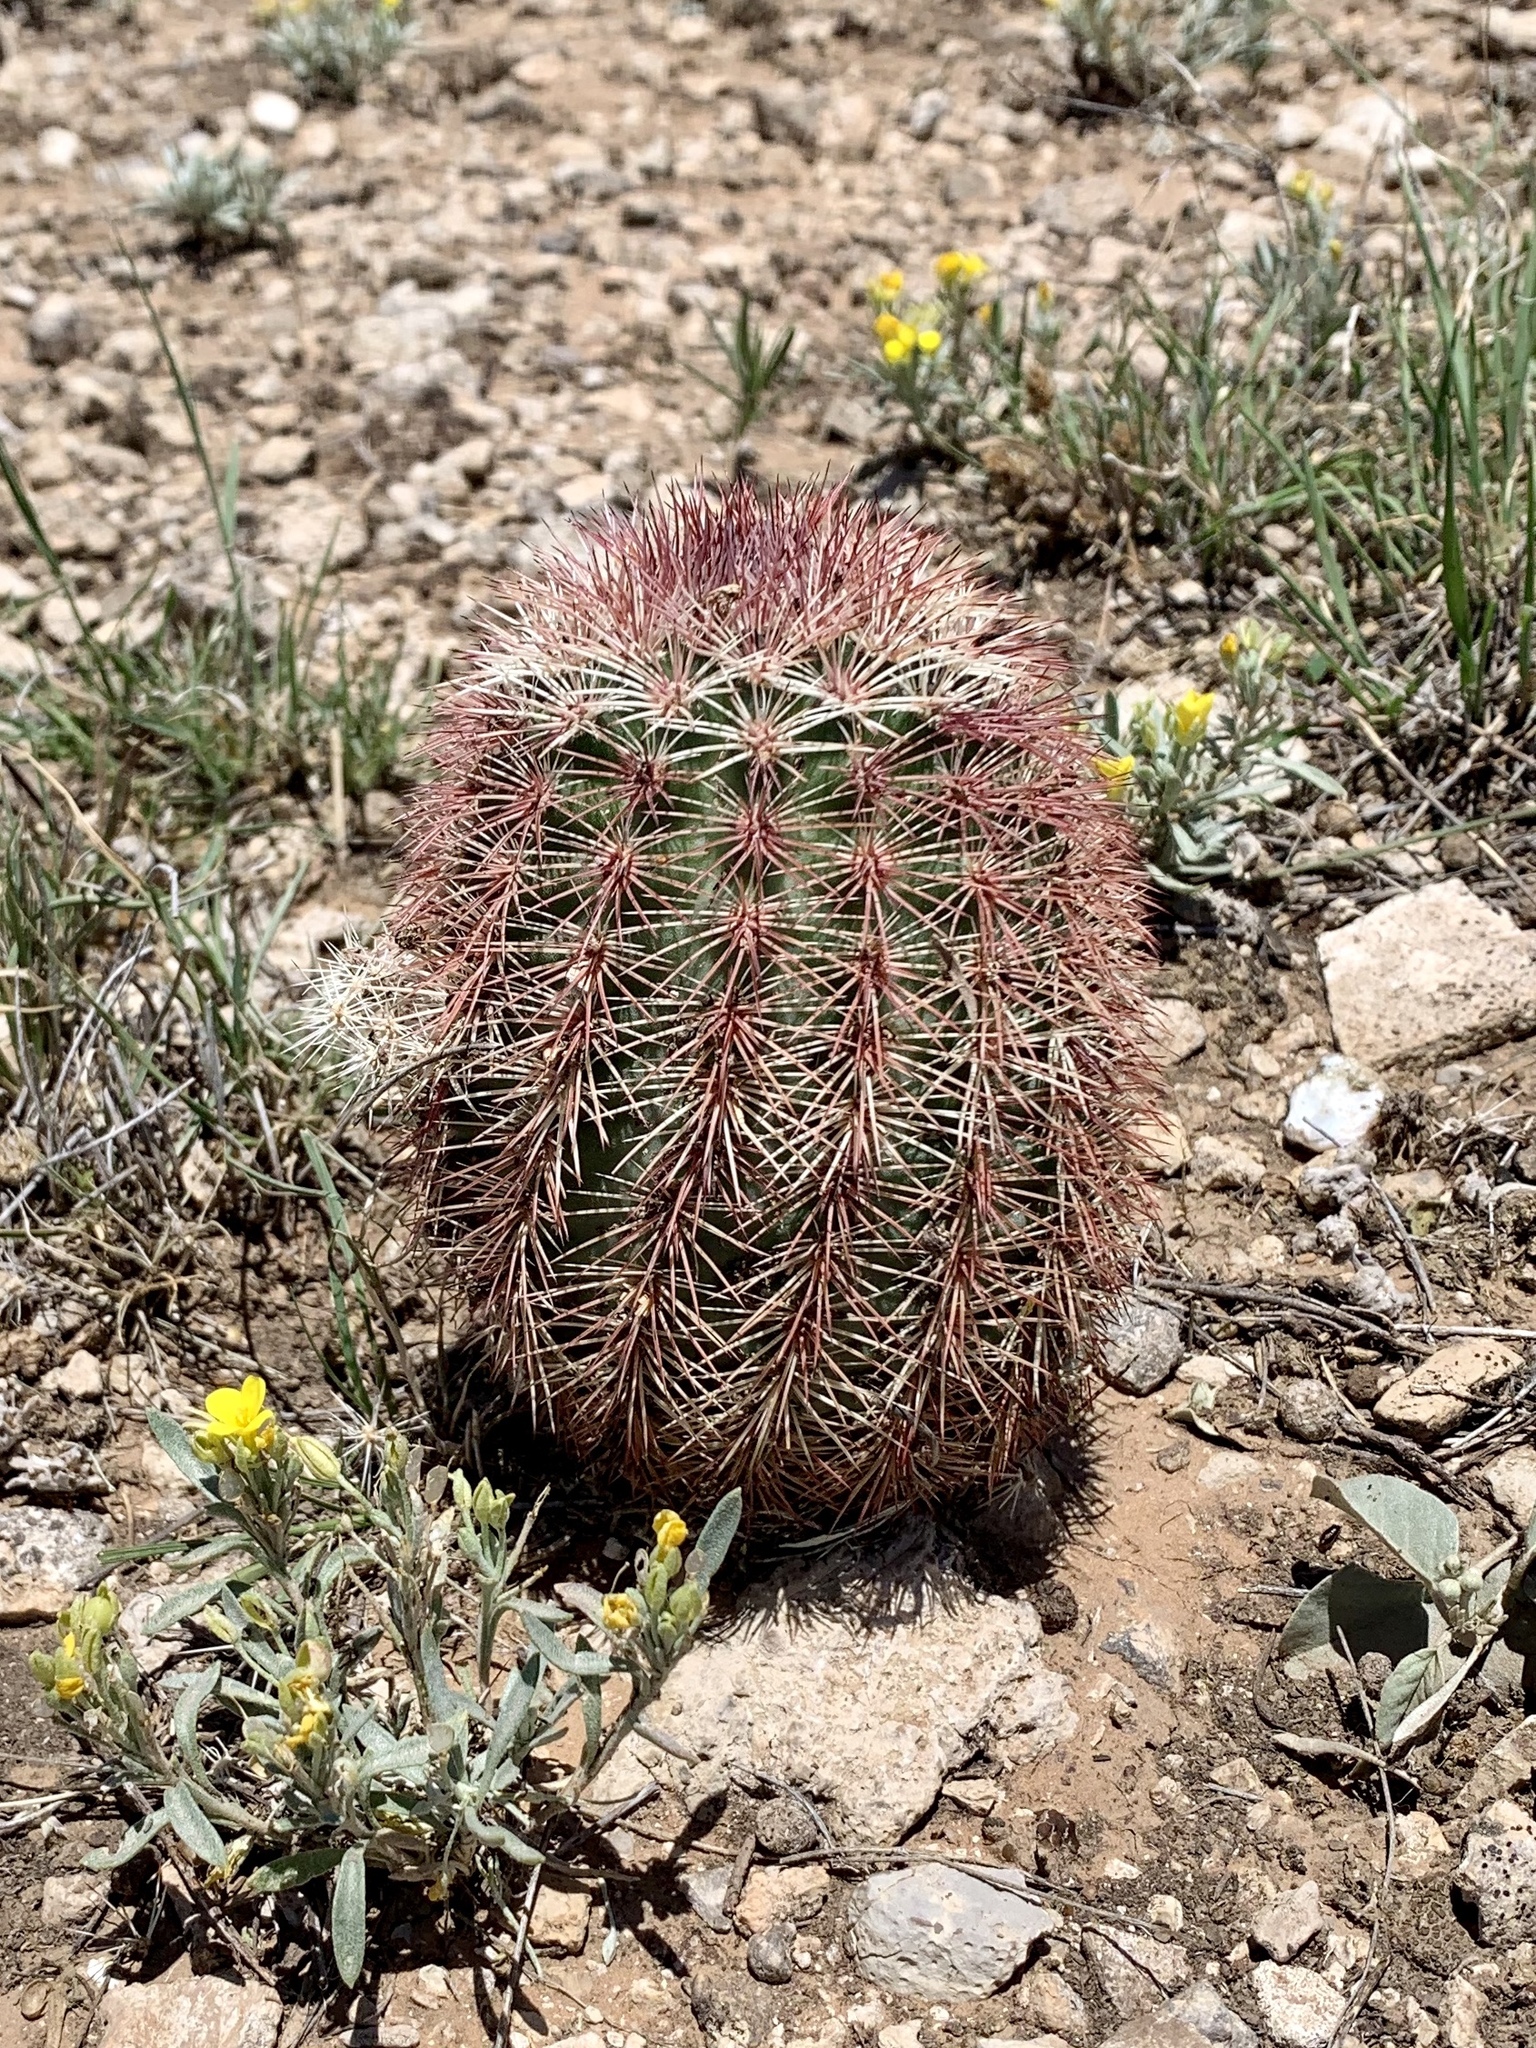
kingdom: Plantae
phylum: Tracheophyta
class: Magnoliopsida
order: Caryophyllales
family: Cactaceae
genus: Echinocereus
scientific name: Echinocereus dasyacanthus
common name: Spiny hedgehog cactus
